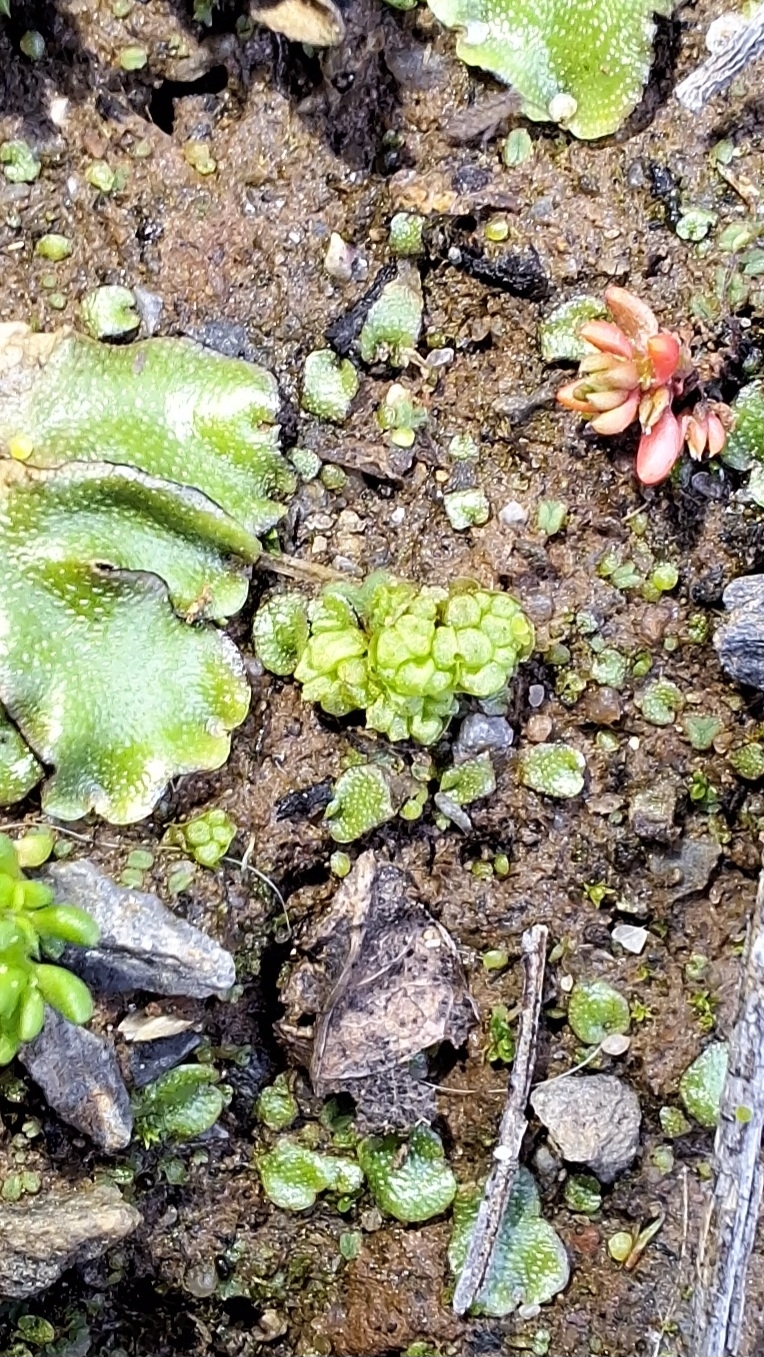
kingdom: Plantae
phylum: Marchantiophyta
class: Marchantiopsida
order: Sphaerocarpales
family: Sphaerocarpaceae
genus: Sphaerocarpos
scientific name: Sphaerocarpos texanus
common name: Texas balloonwort
